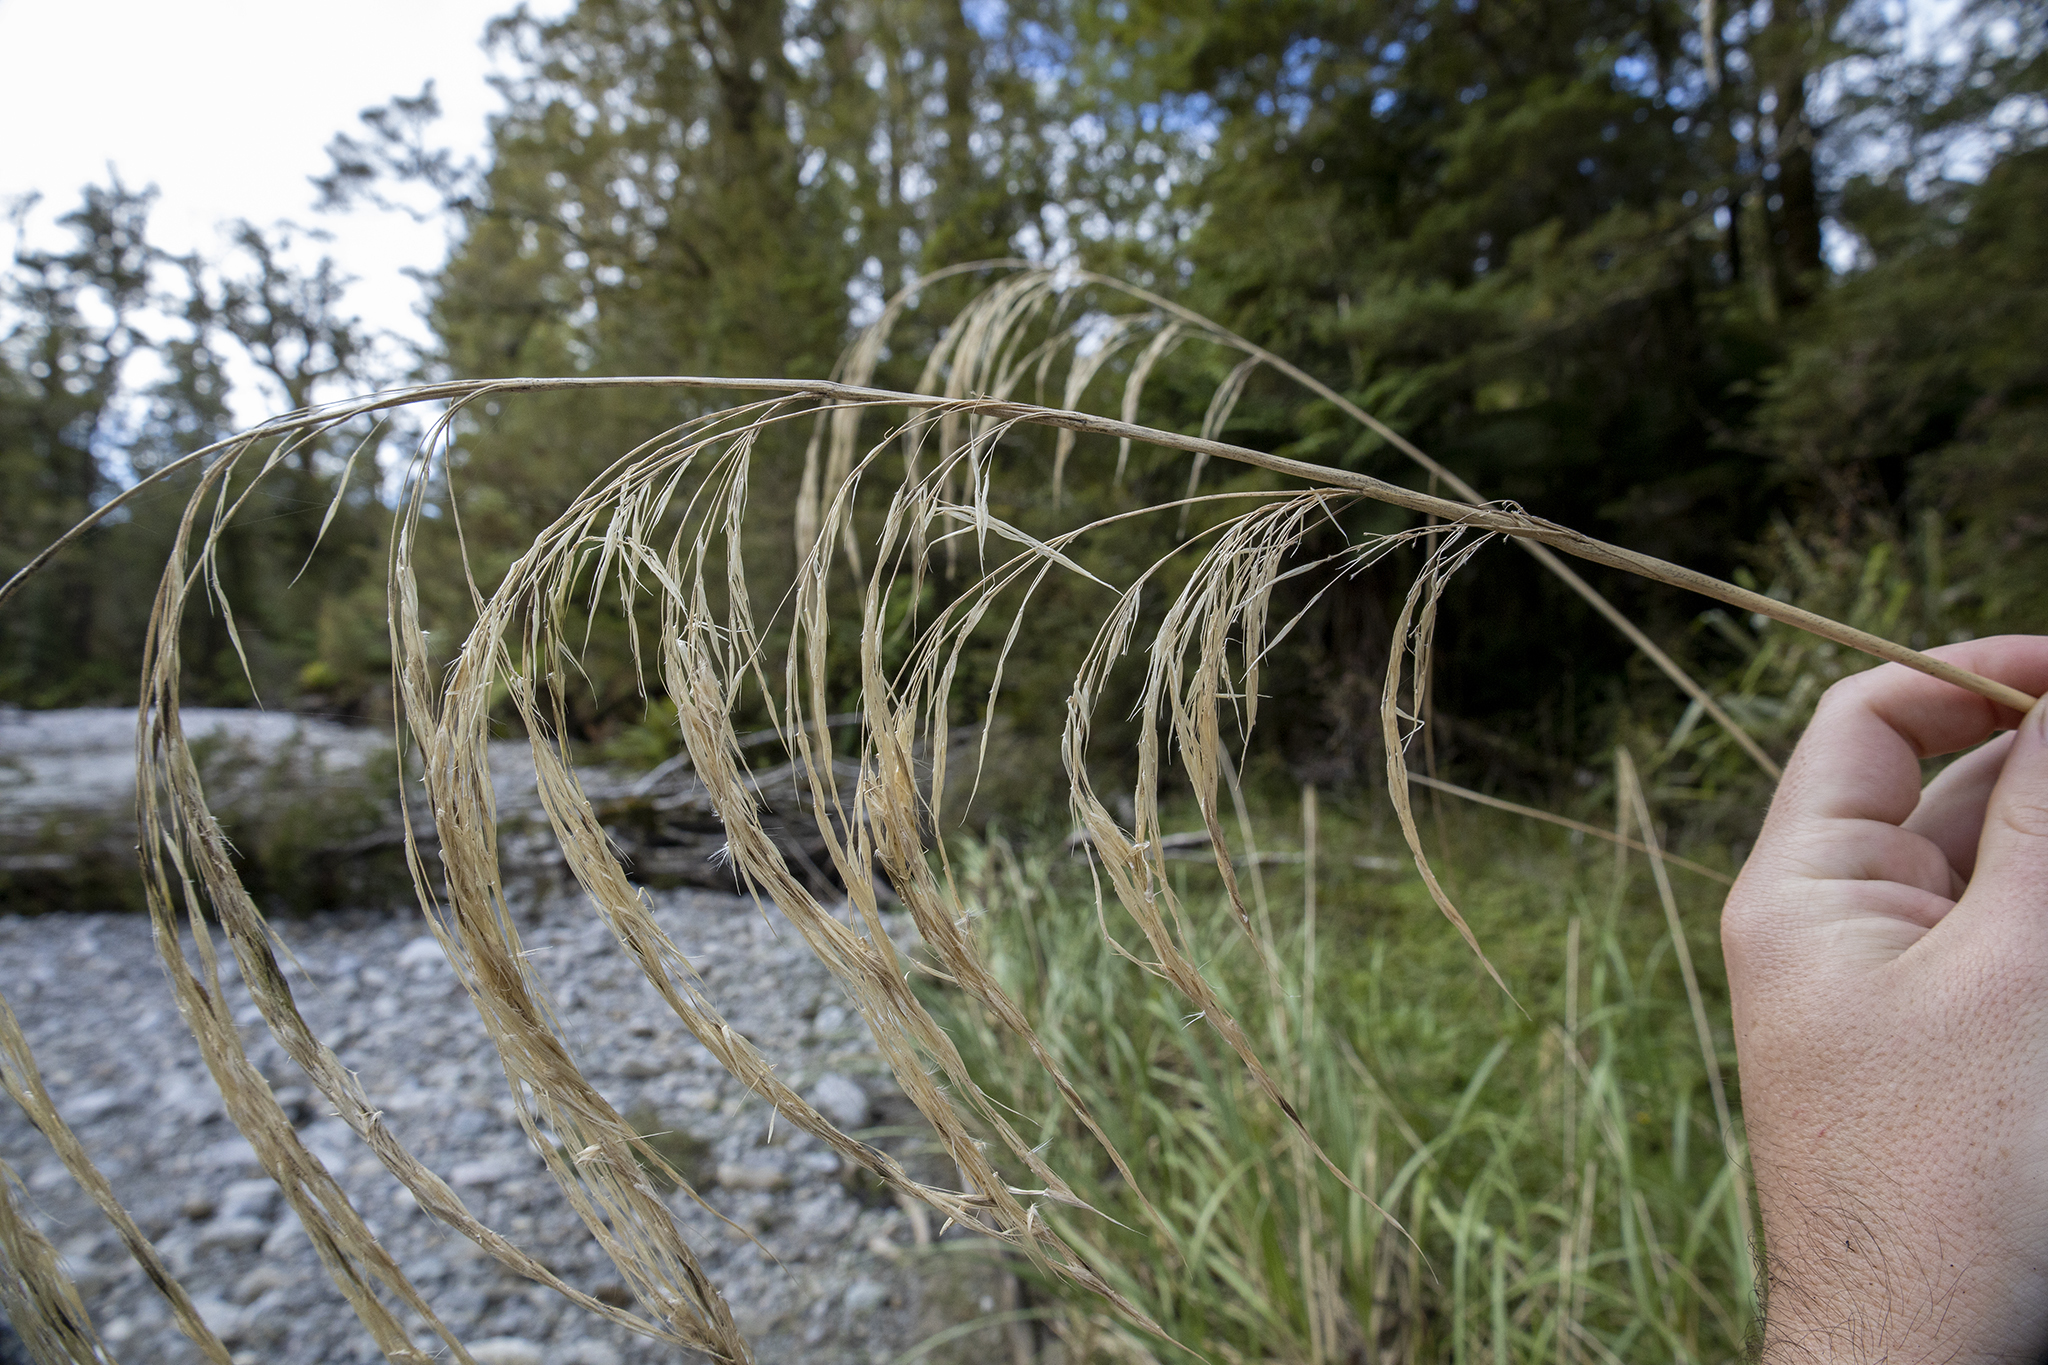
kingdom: Plantae
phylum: Tracheophyta
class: Liliopsida
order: Poales
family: Poaceae
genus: Austroderia
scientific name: Austroderia richardii
